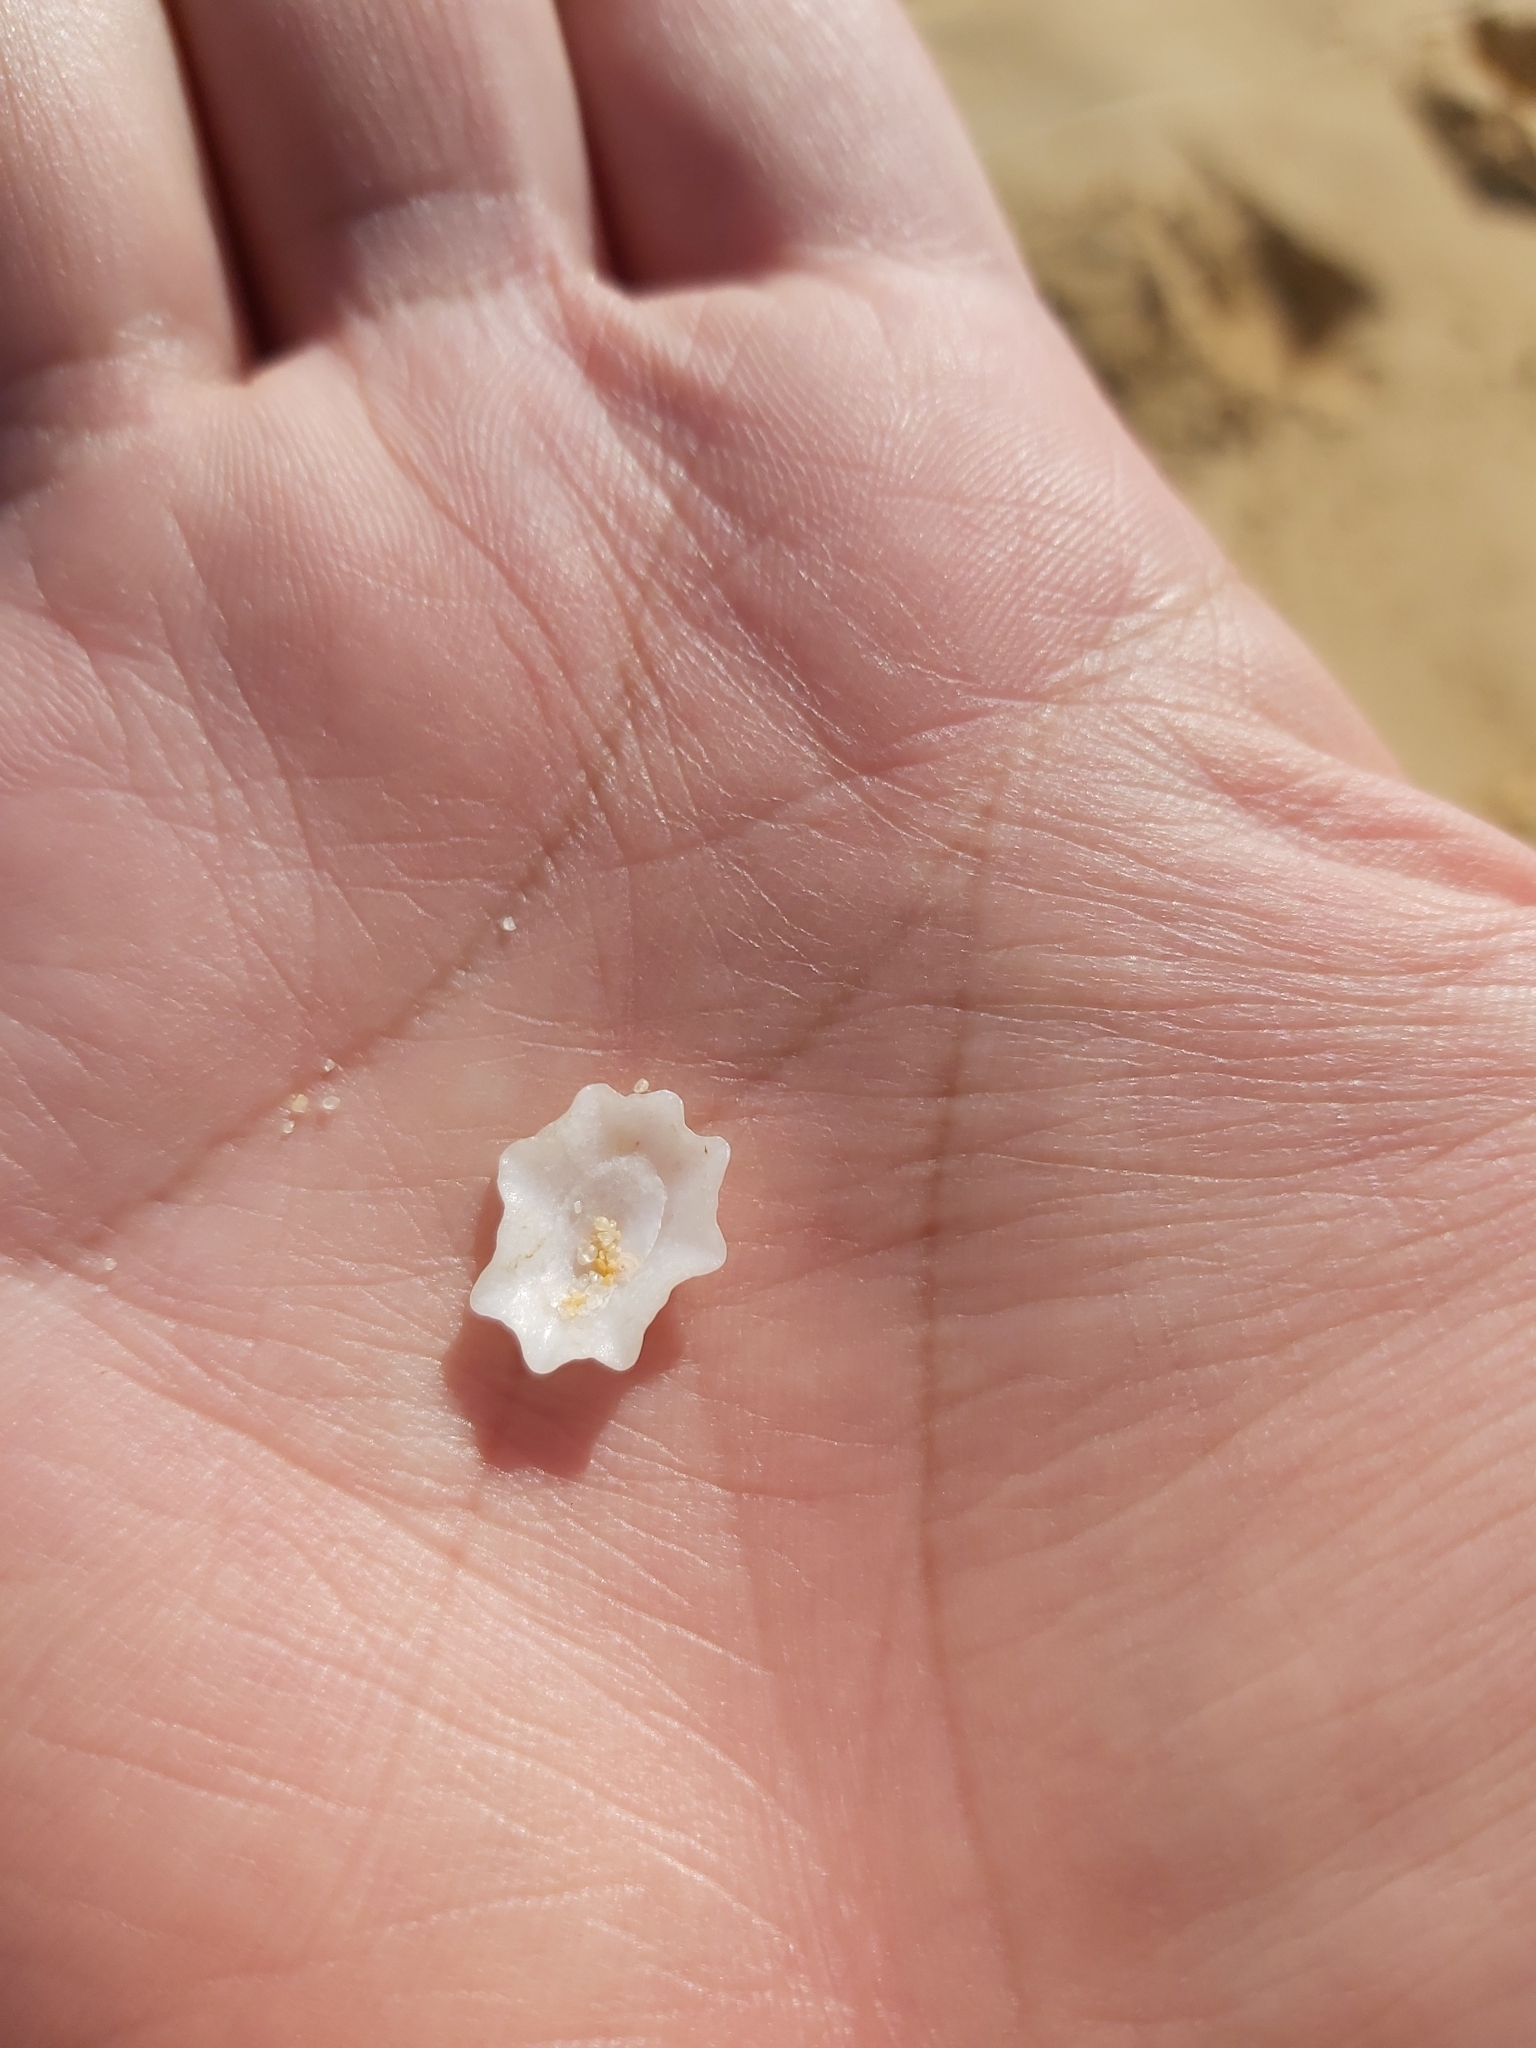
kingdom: Animalia
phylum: Mollusca
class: Gastropoda
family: Patellidae
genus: Scutellastra
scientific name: Scutellastra chapmani
